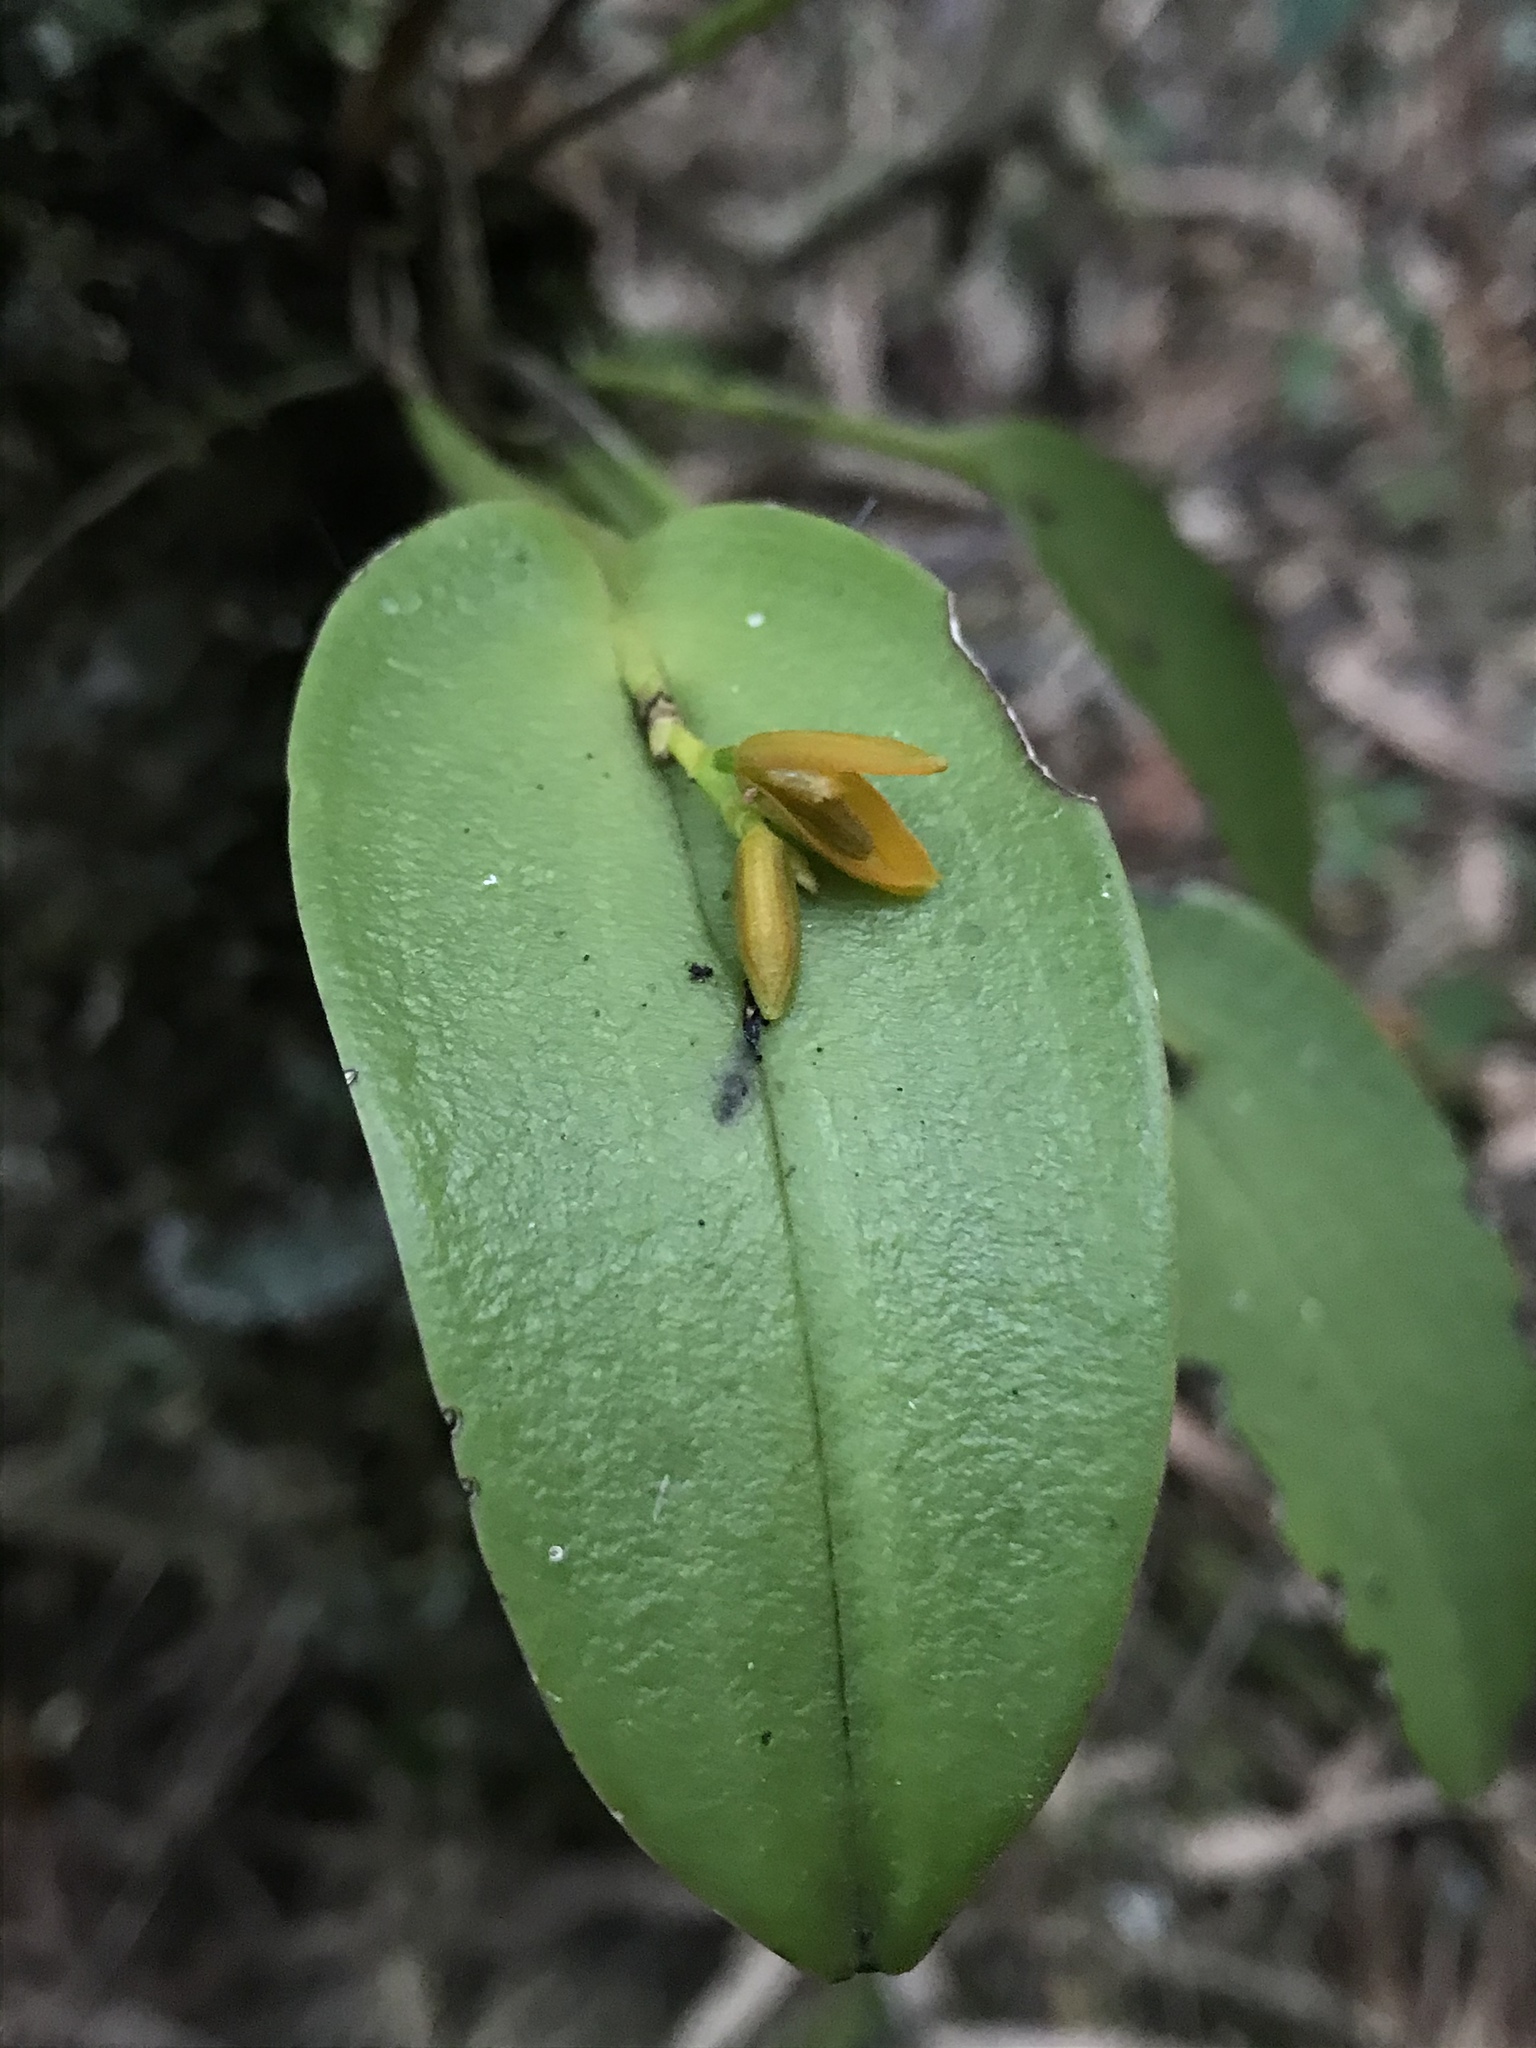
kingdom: Plantae
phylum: Tracheophyta
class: Liliopsida
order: Asparagales
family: Orchidaceae
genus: Acianthera
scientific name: Acianthera polystachya
